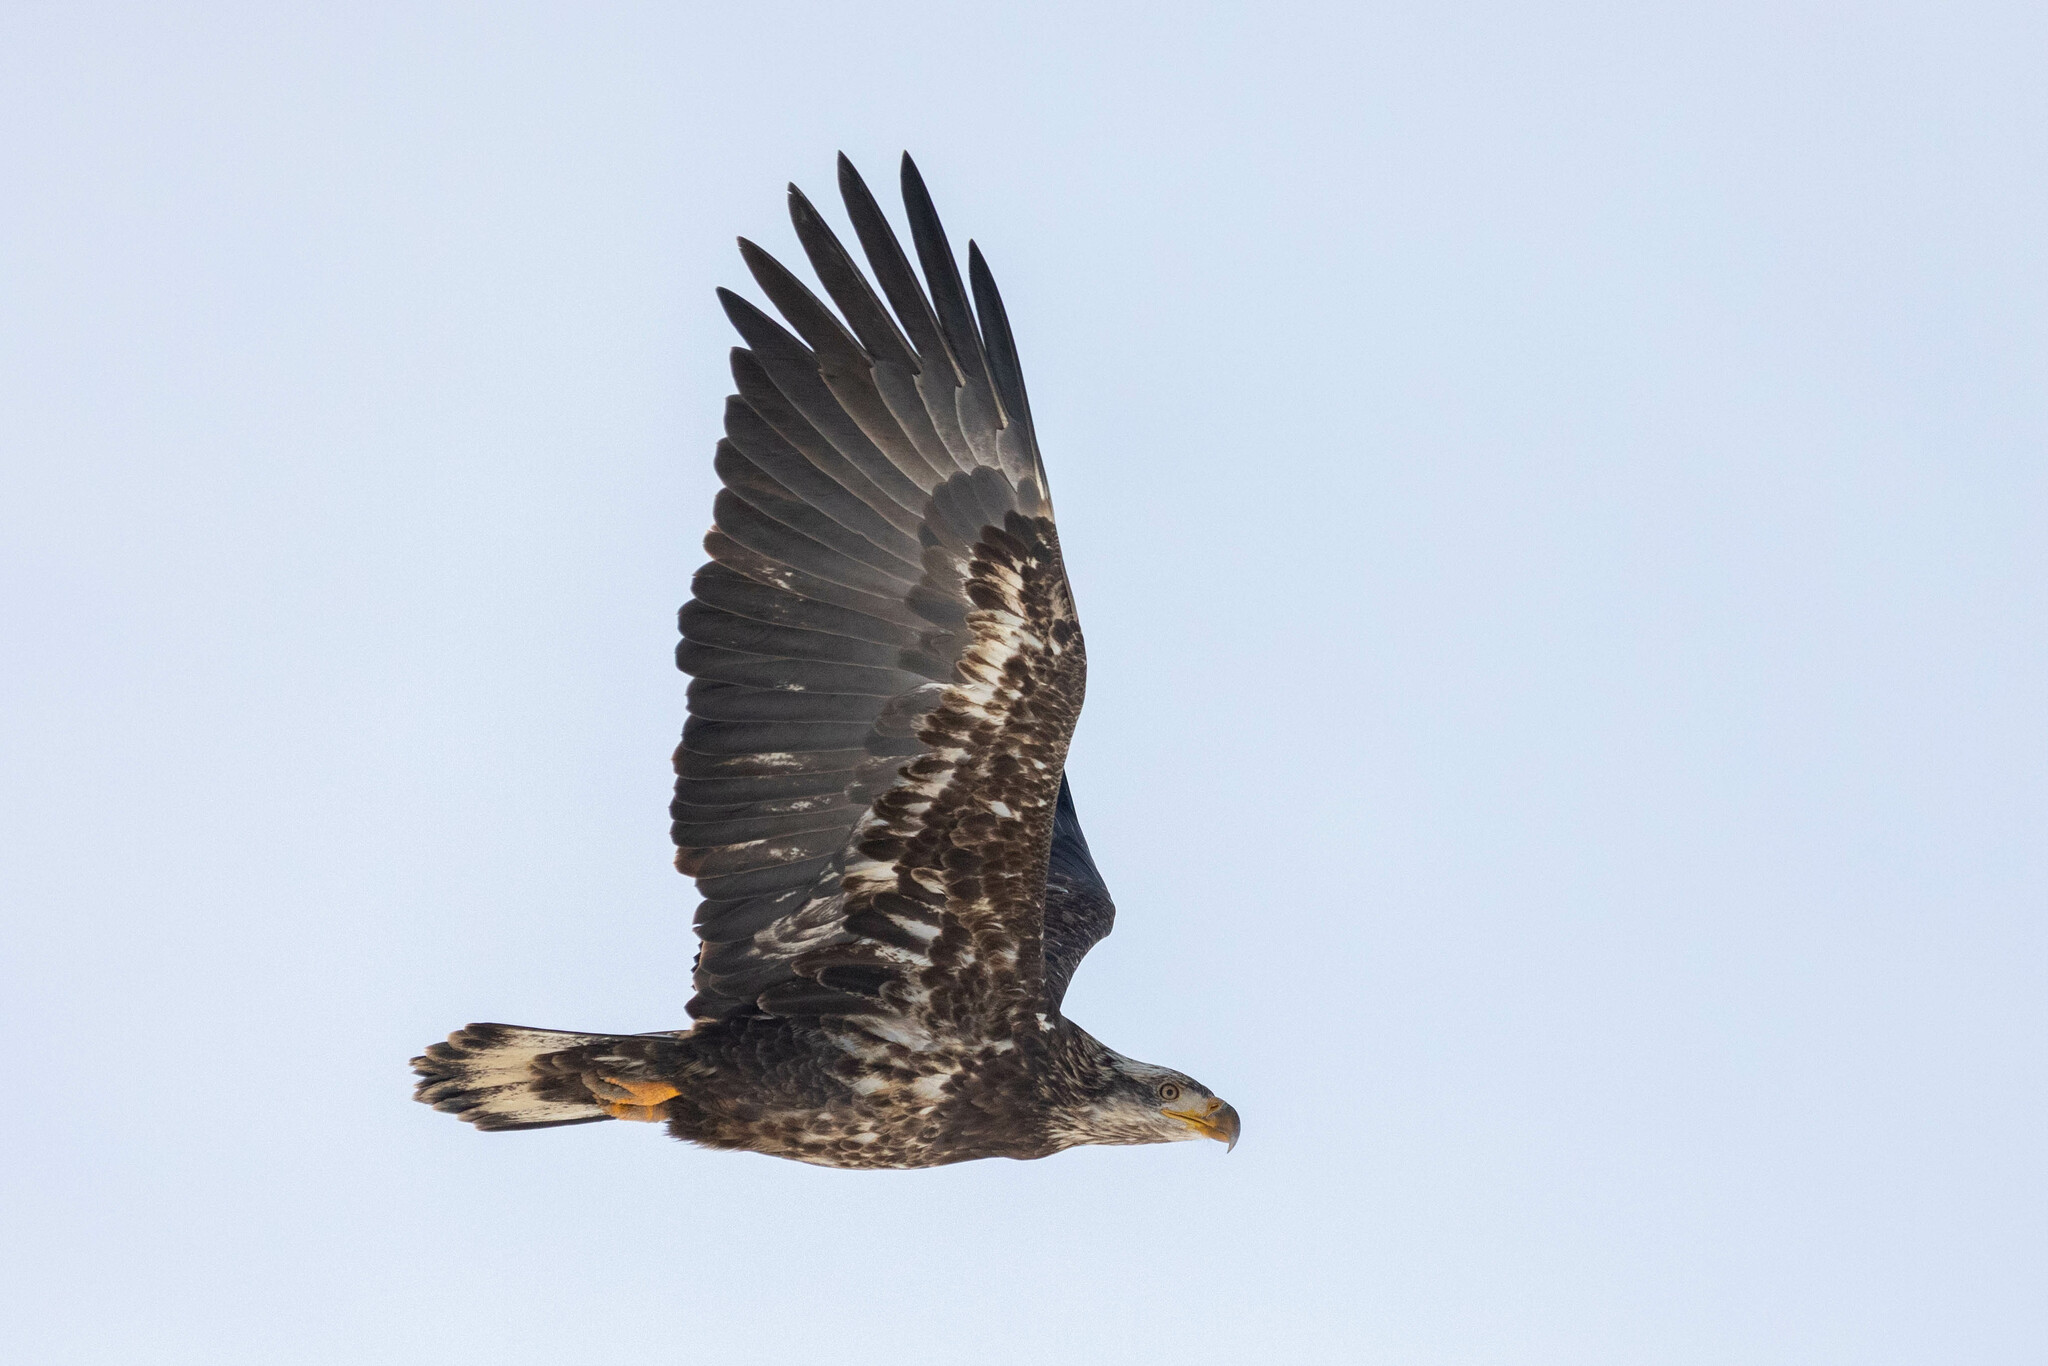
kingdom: Animalia
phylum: Chordata
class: Aves
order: Accipitriformes
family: Accipitridae
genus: Haliaeetus
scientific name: Haliaeetus leucocephalus
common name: Bald eagle
